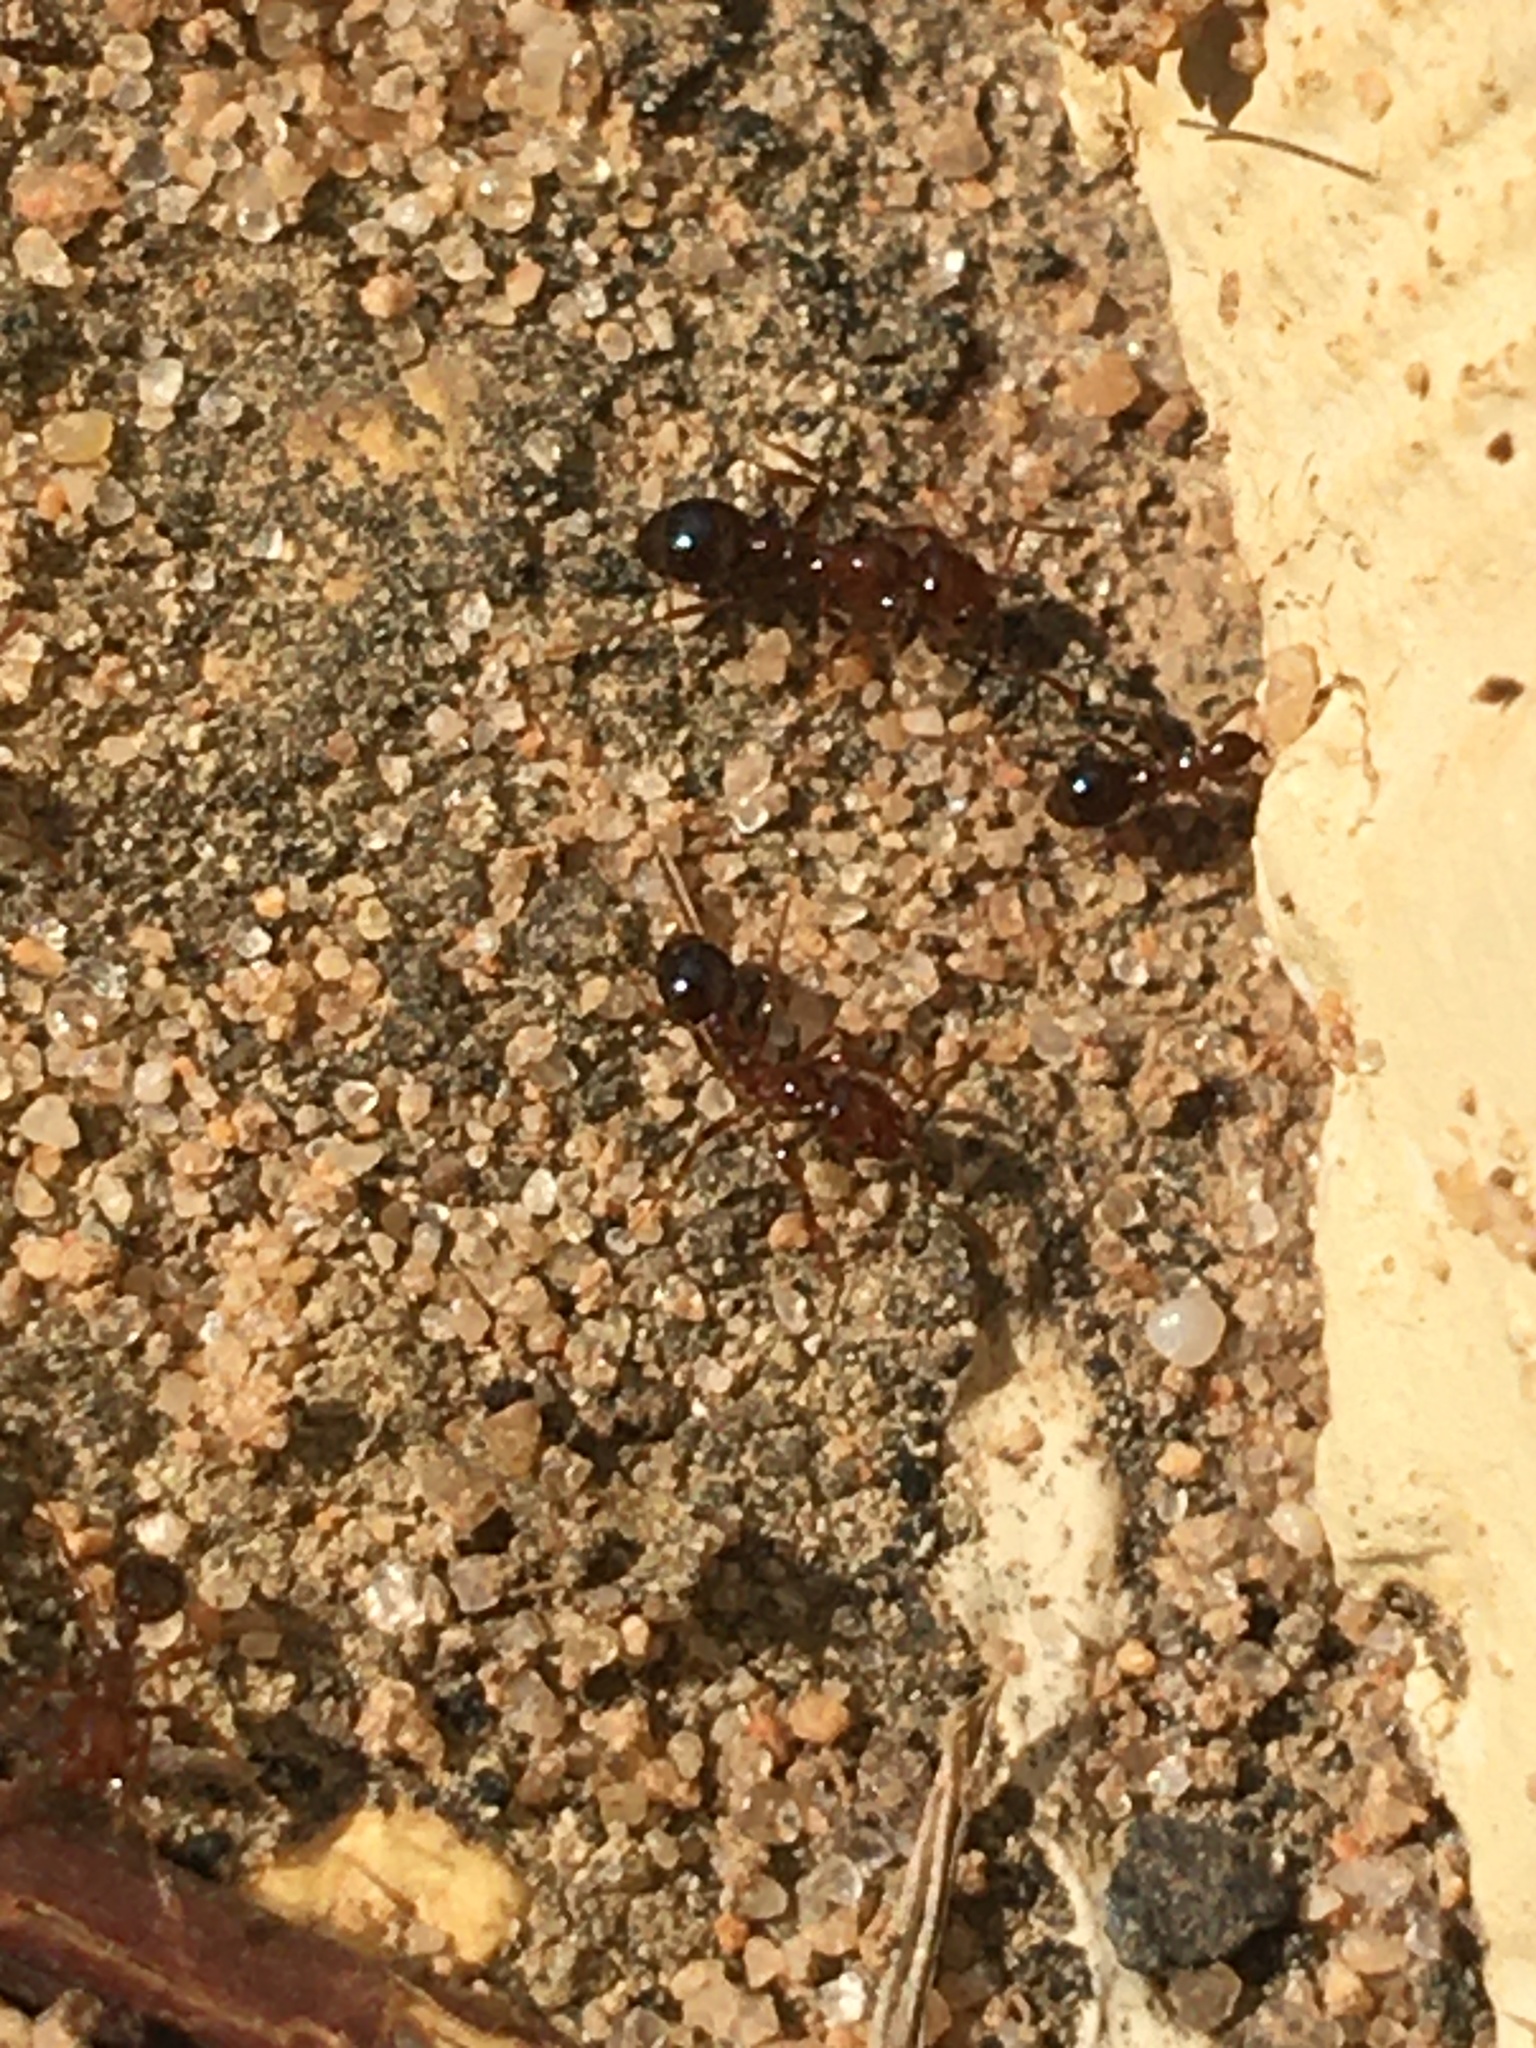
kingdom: Animalia
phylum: Arthropoda
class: Insecta
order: Hymenoptera
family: Formicidae
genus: Solenopsis
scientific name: Solenopsis invicta
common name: Red imported fire ant
